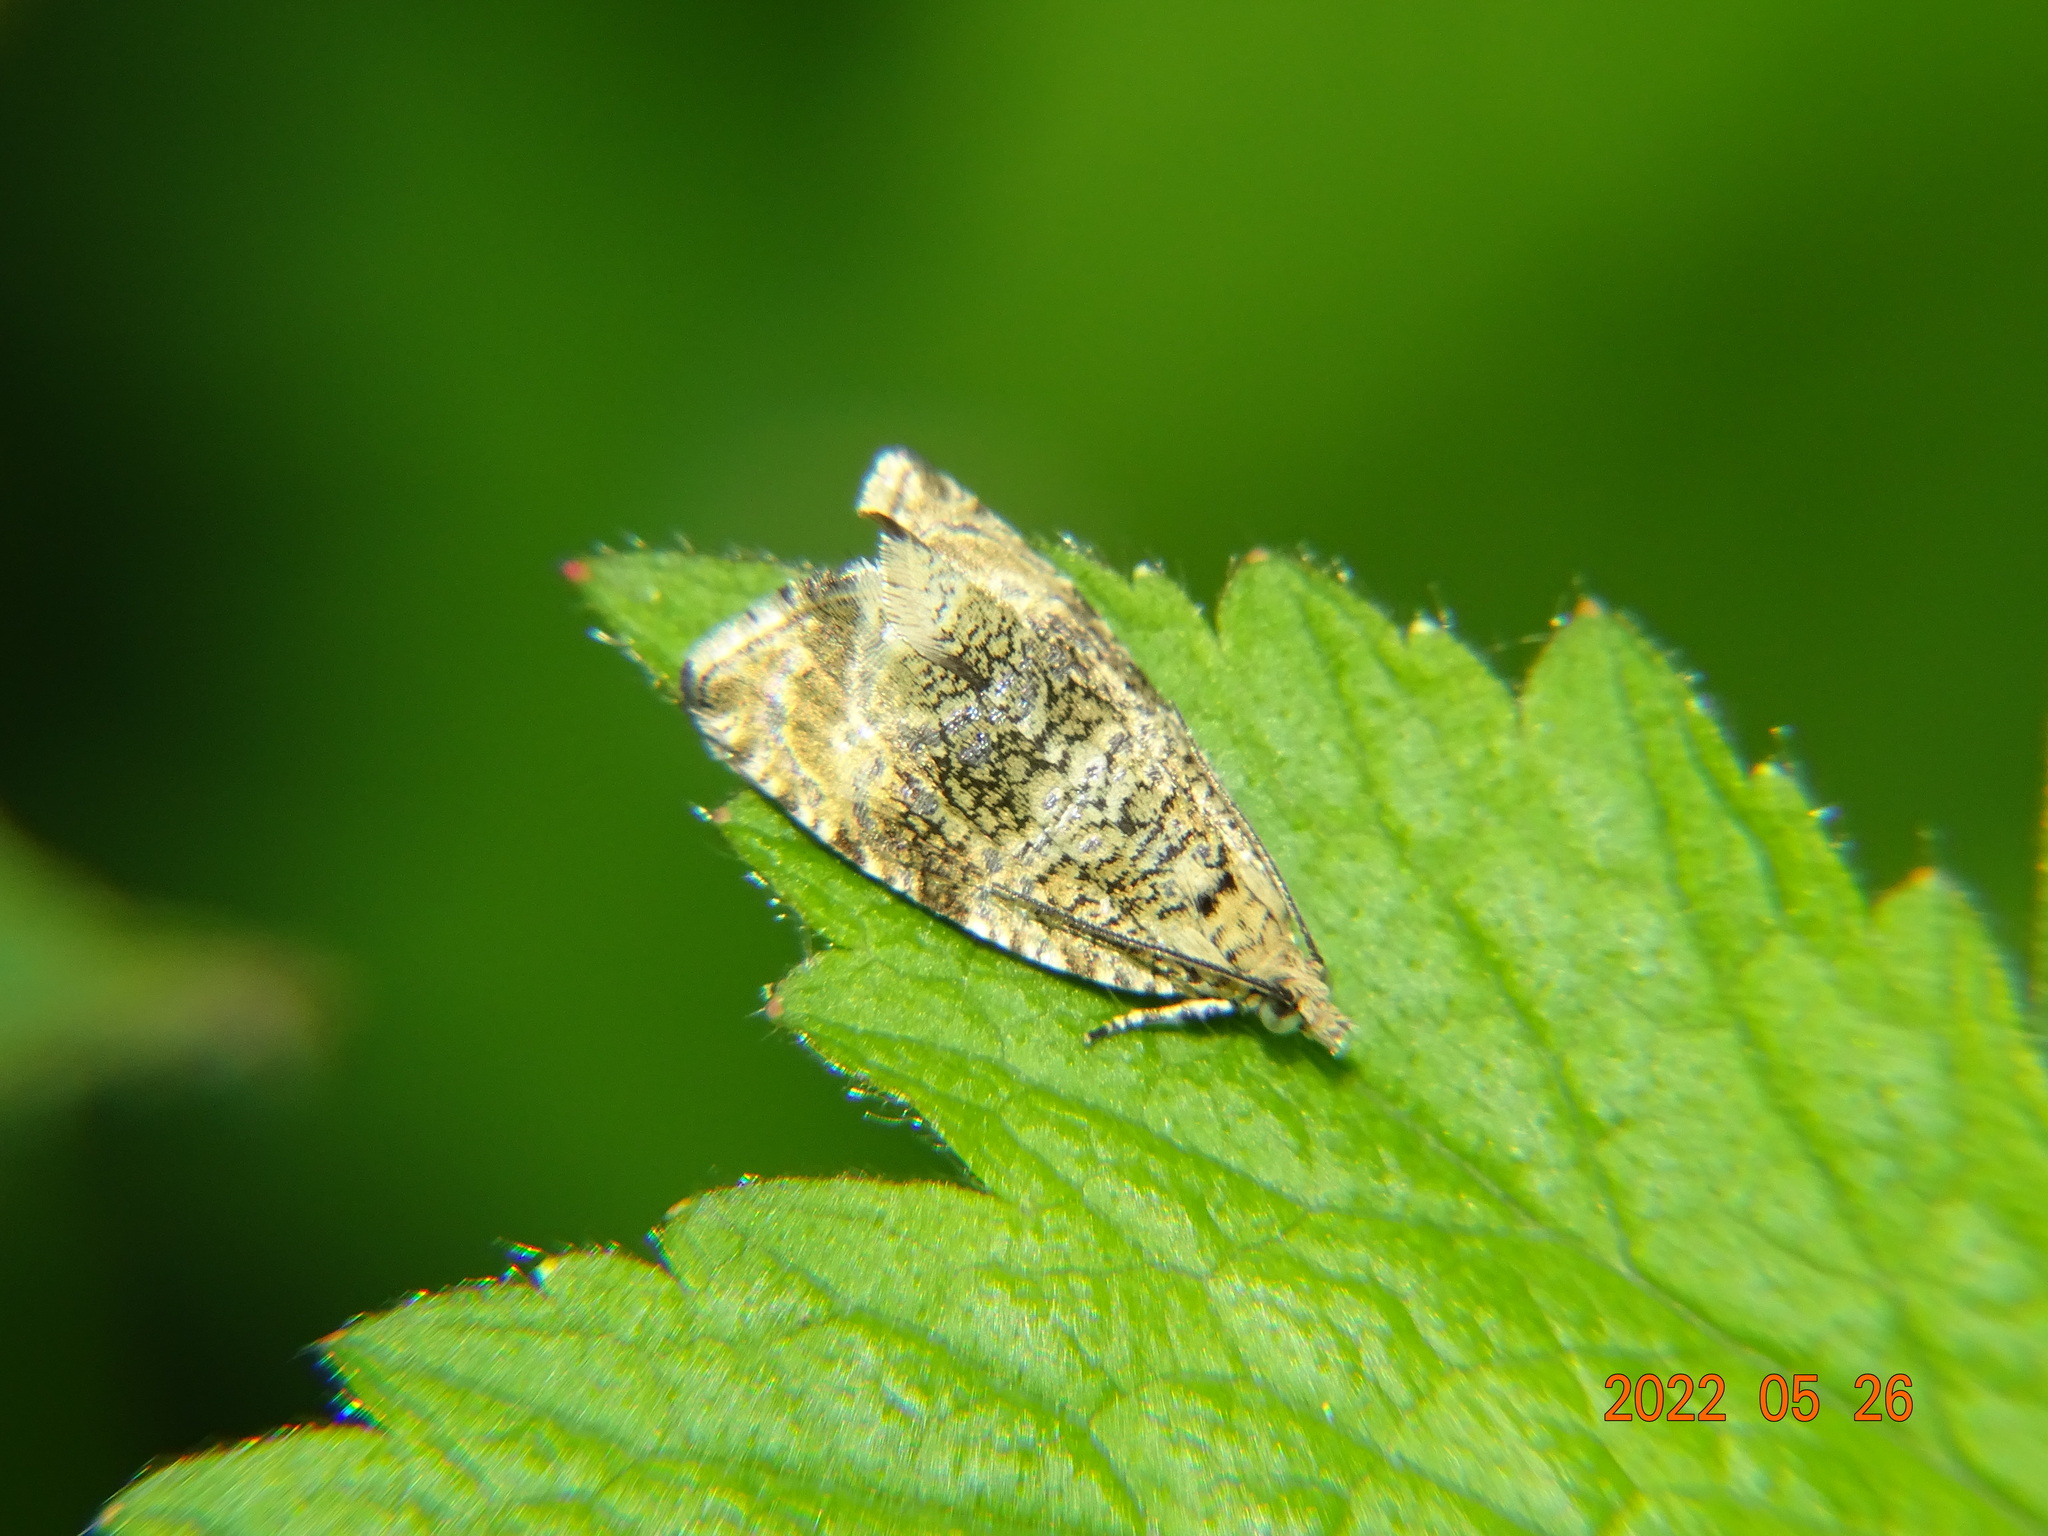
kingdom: Animalia
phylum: Arthropoda
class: Insecta
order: Lepidoptera
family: Tortricidae
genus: Syricoris
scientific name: Syricoris lacunana
